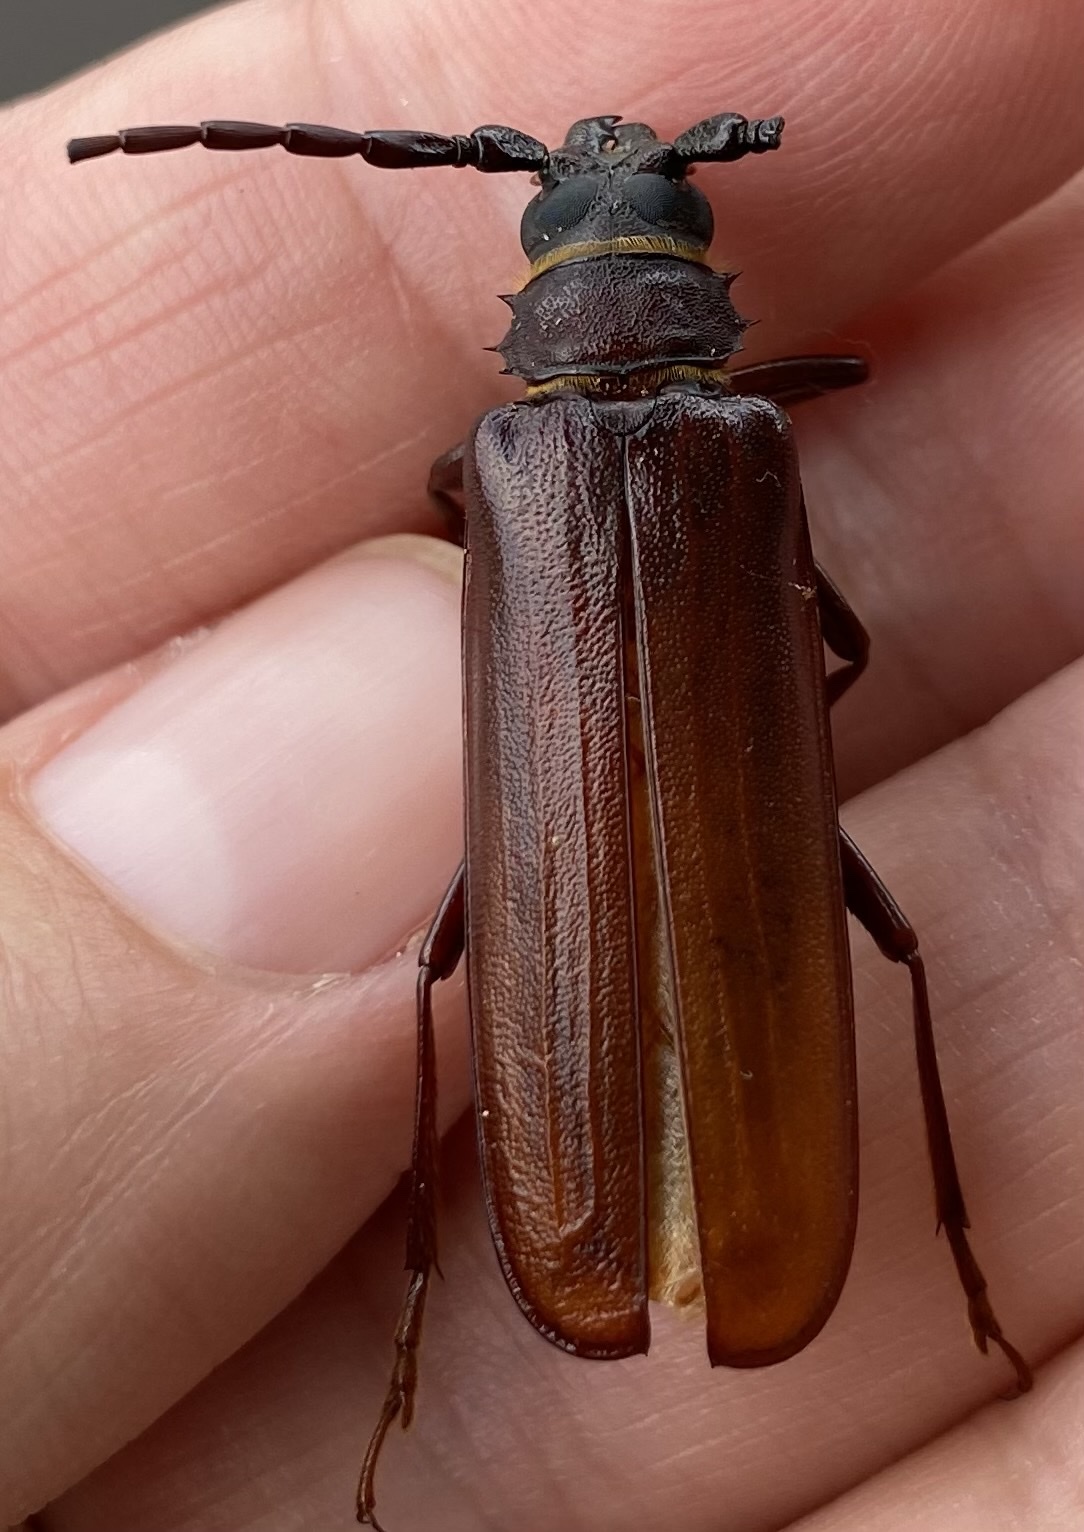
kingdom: Animalia
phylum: Arthropoda
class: Insecta
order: Coleoptera
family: Cerambycidae
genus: Orthosoma
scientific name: Orthosoma brunneum
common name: Brown prionid beetle
